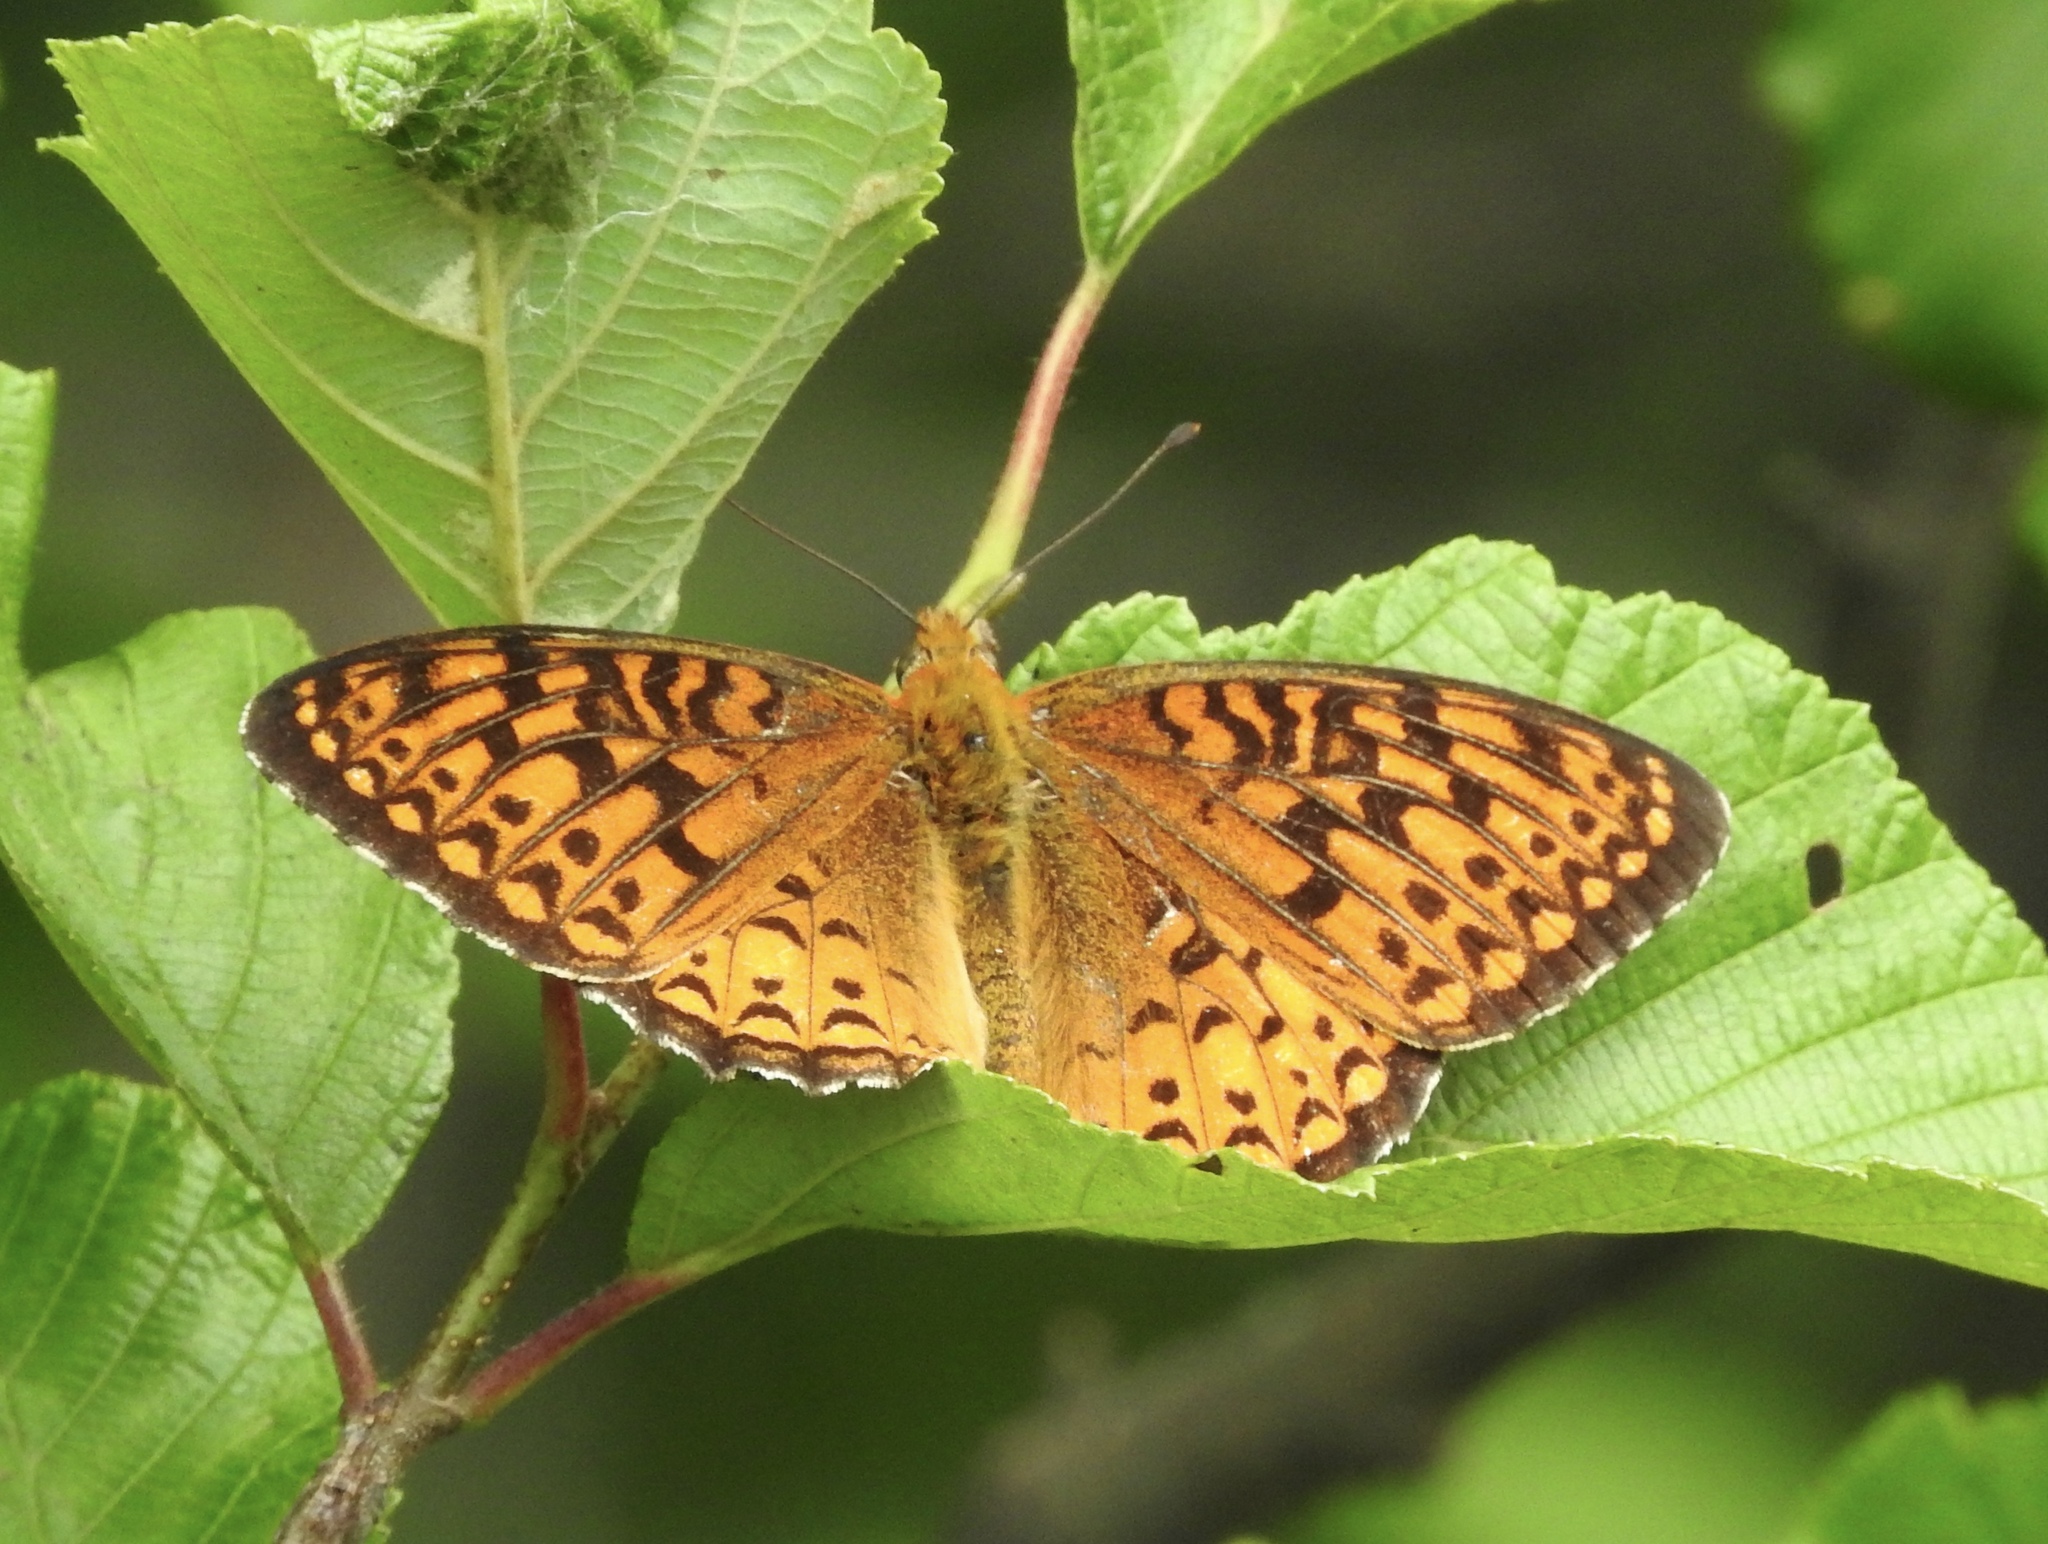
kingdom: Animalia
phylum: Arthropoda
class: Insecta
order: Lepidoptera
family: Nymphalidae
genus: Speyeria
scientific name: Speyeria atlantis
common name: Atlantis fritillary
